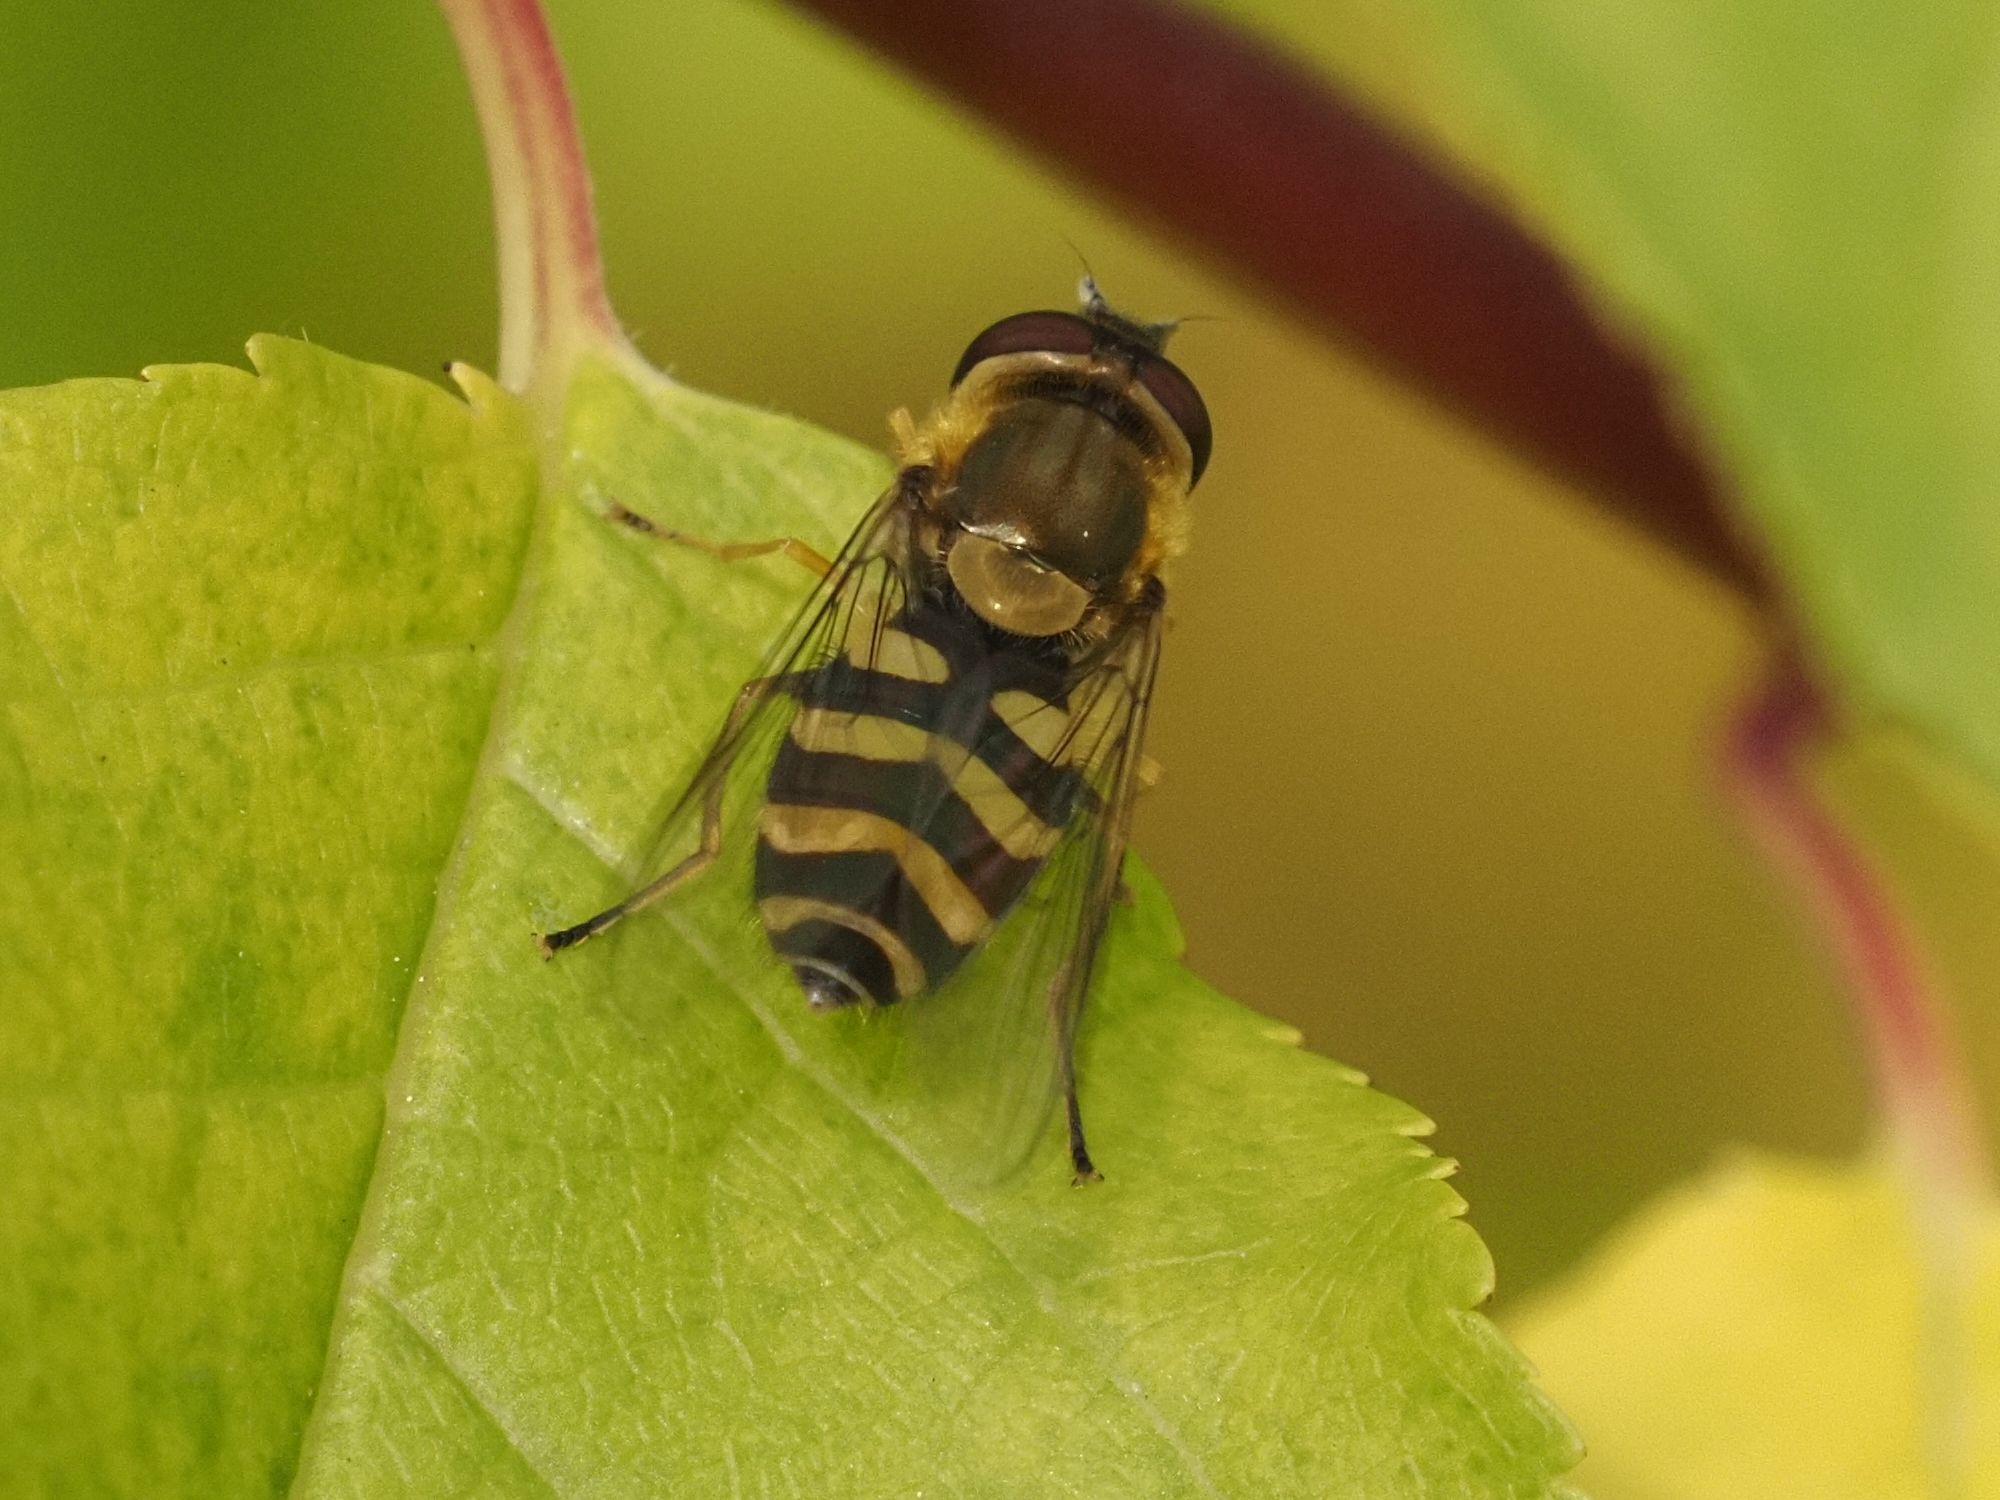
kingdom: Animalia
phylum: Arthropoda
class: Insecta
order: Diptera
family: Syrphidae
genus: Syrphus
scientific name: Syrphus
